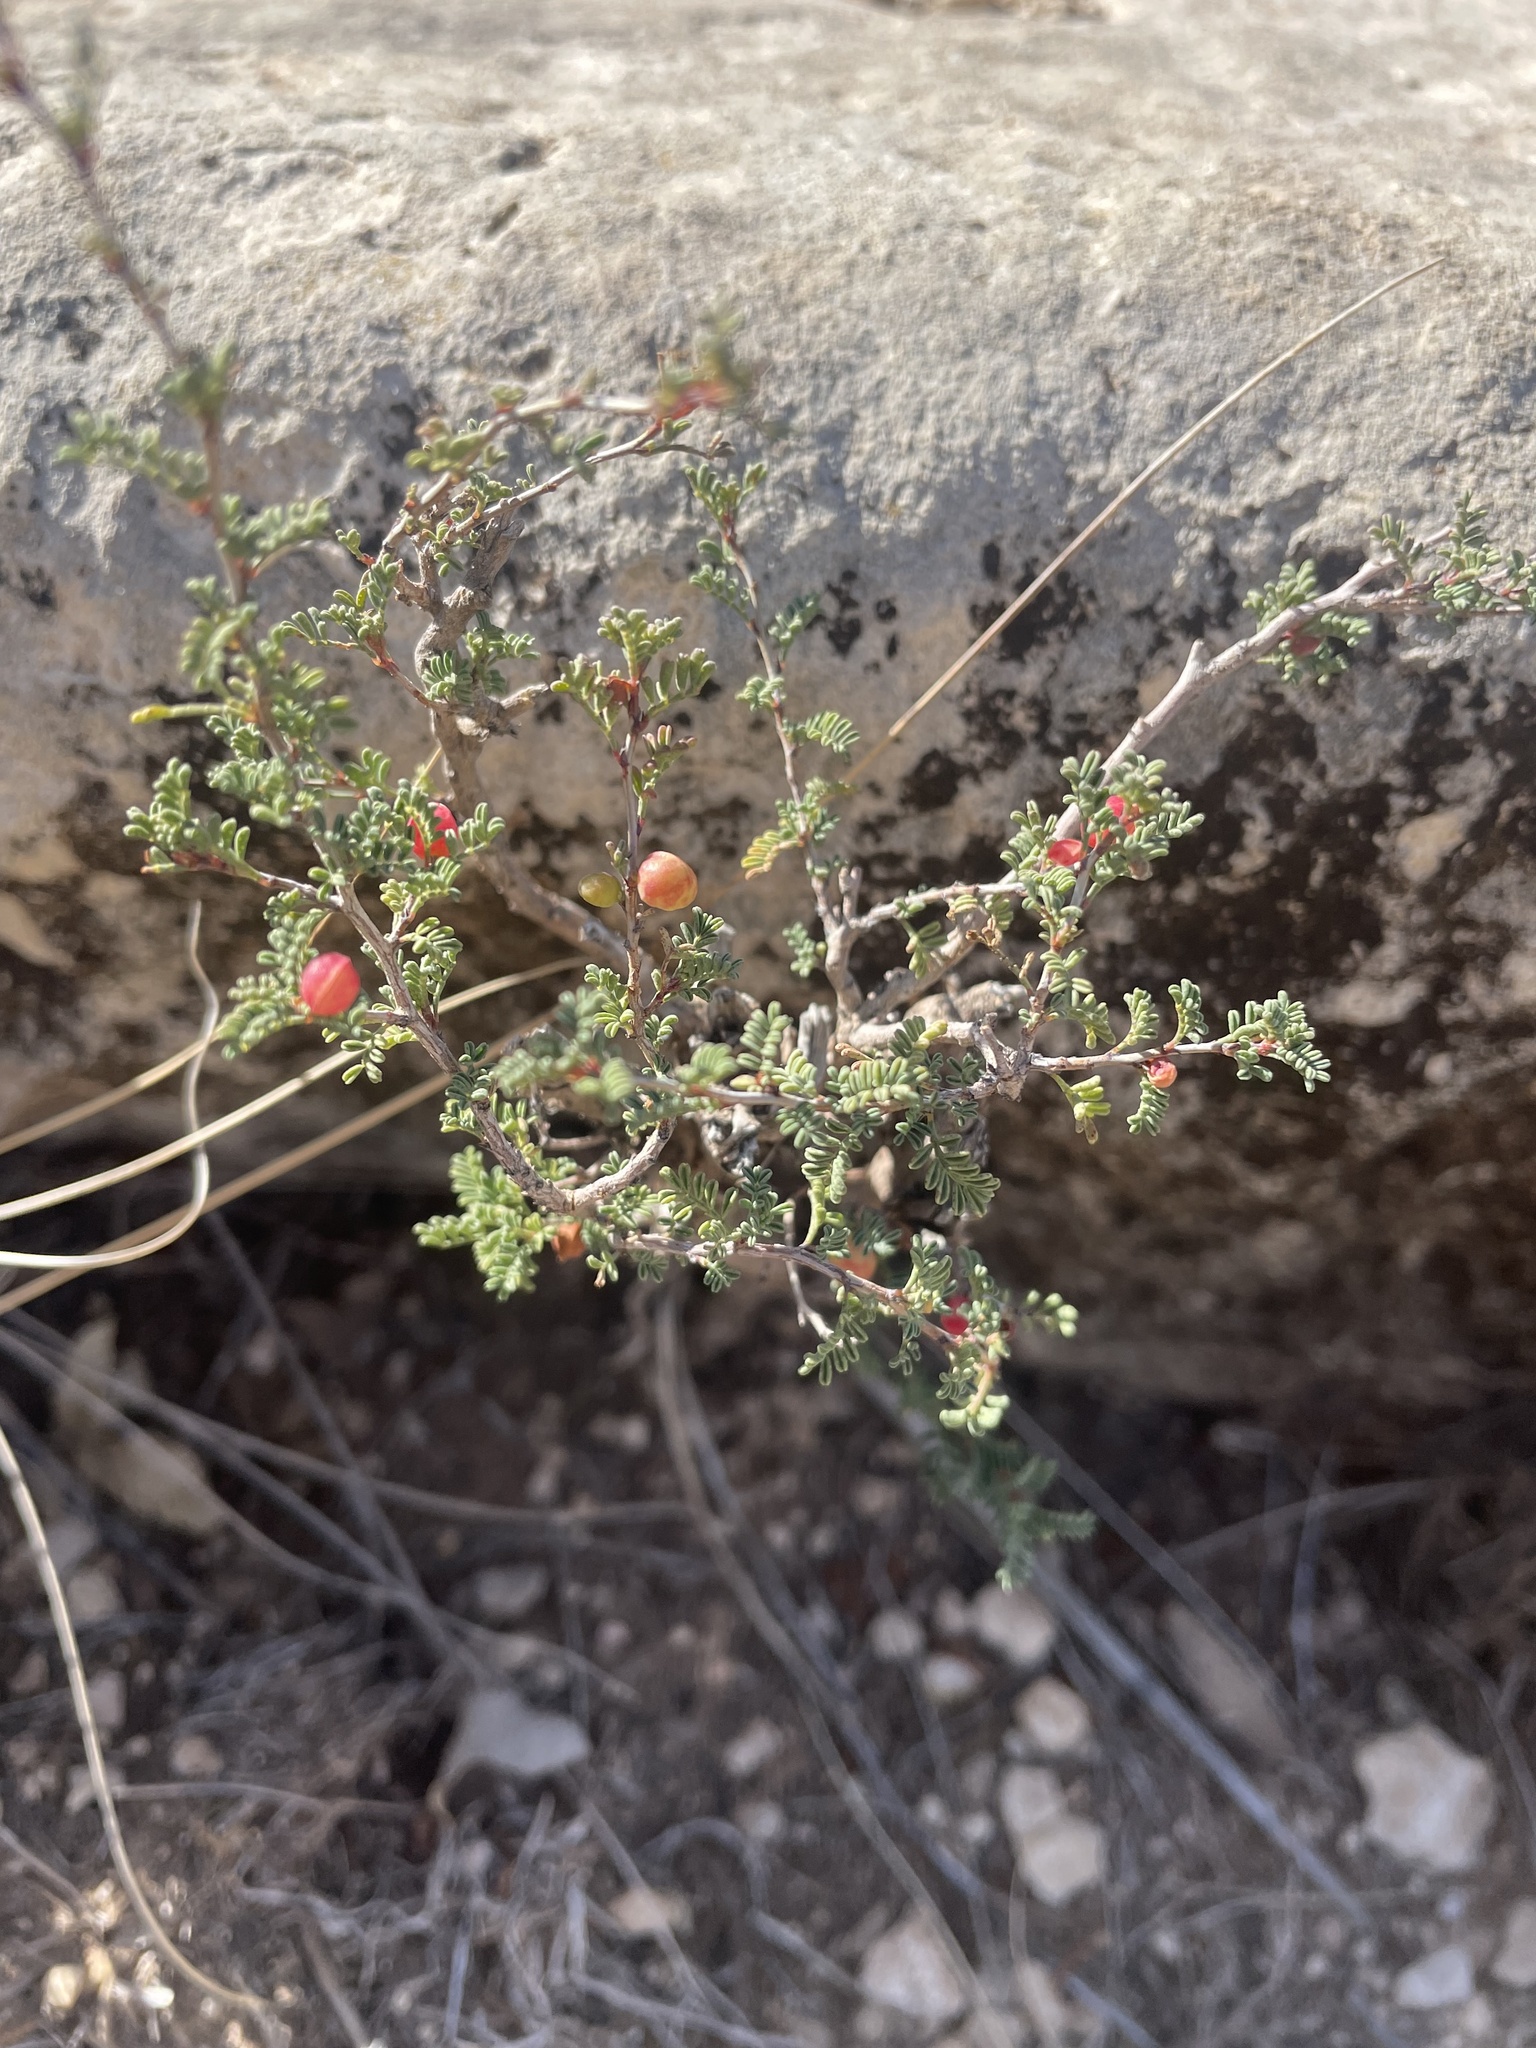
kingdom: Plantae
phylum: Tracheophyta
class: Magnoliopsida
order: Fabales
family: Fabaceae
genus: Dalea
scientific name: Dalea formosa
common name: Feather-plume dalea
